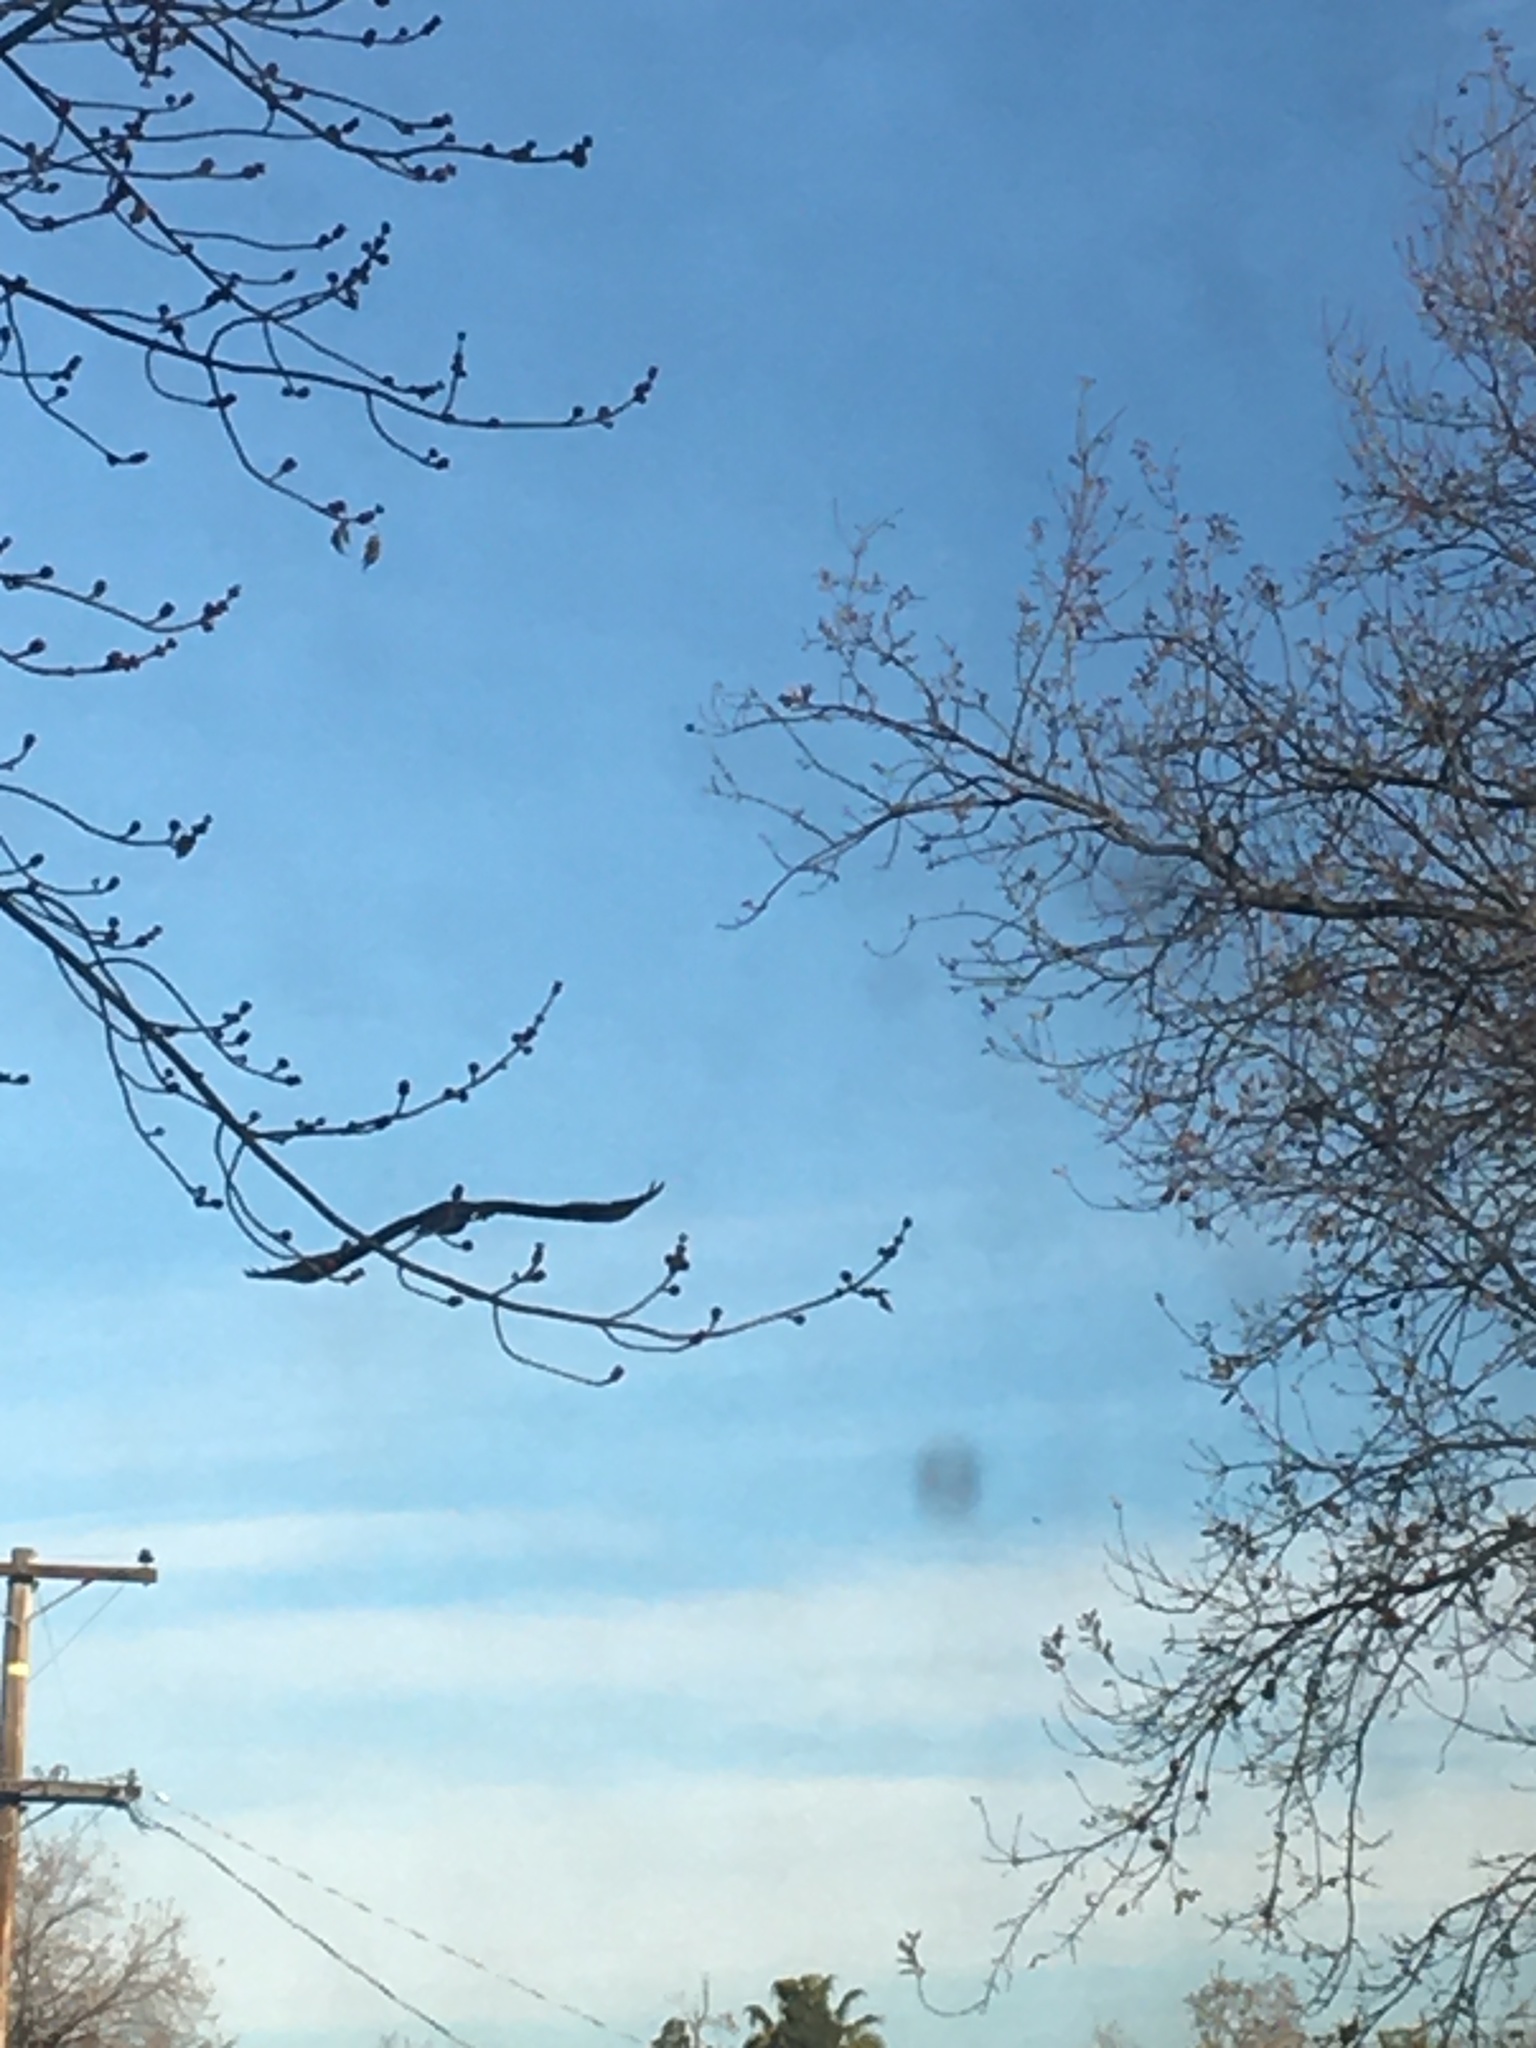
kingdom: Animalia
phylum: Chordata
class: Aves
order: Accipitriformes
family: Cathartidae
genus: Cathartes
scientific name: Cathartes aura
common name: Turkey vulture
